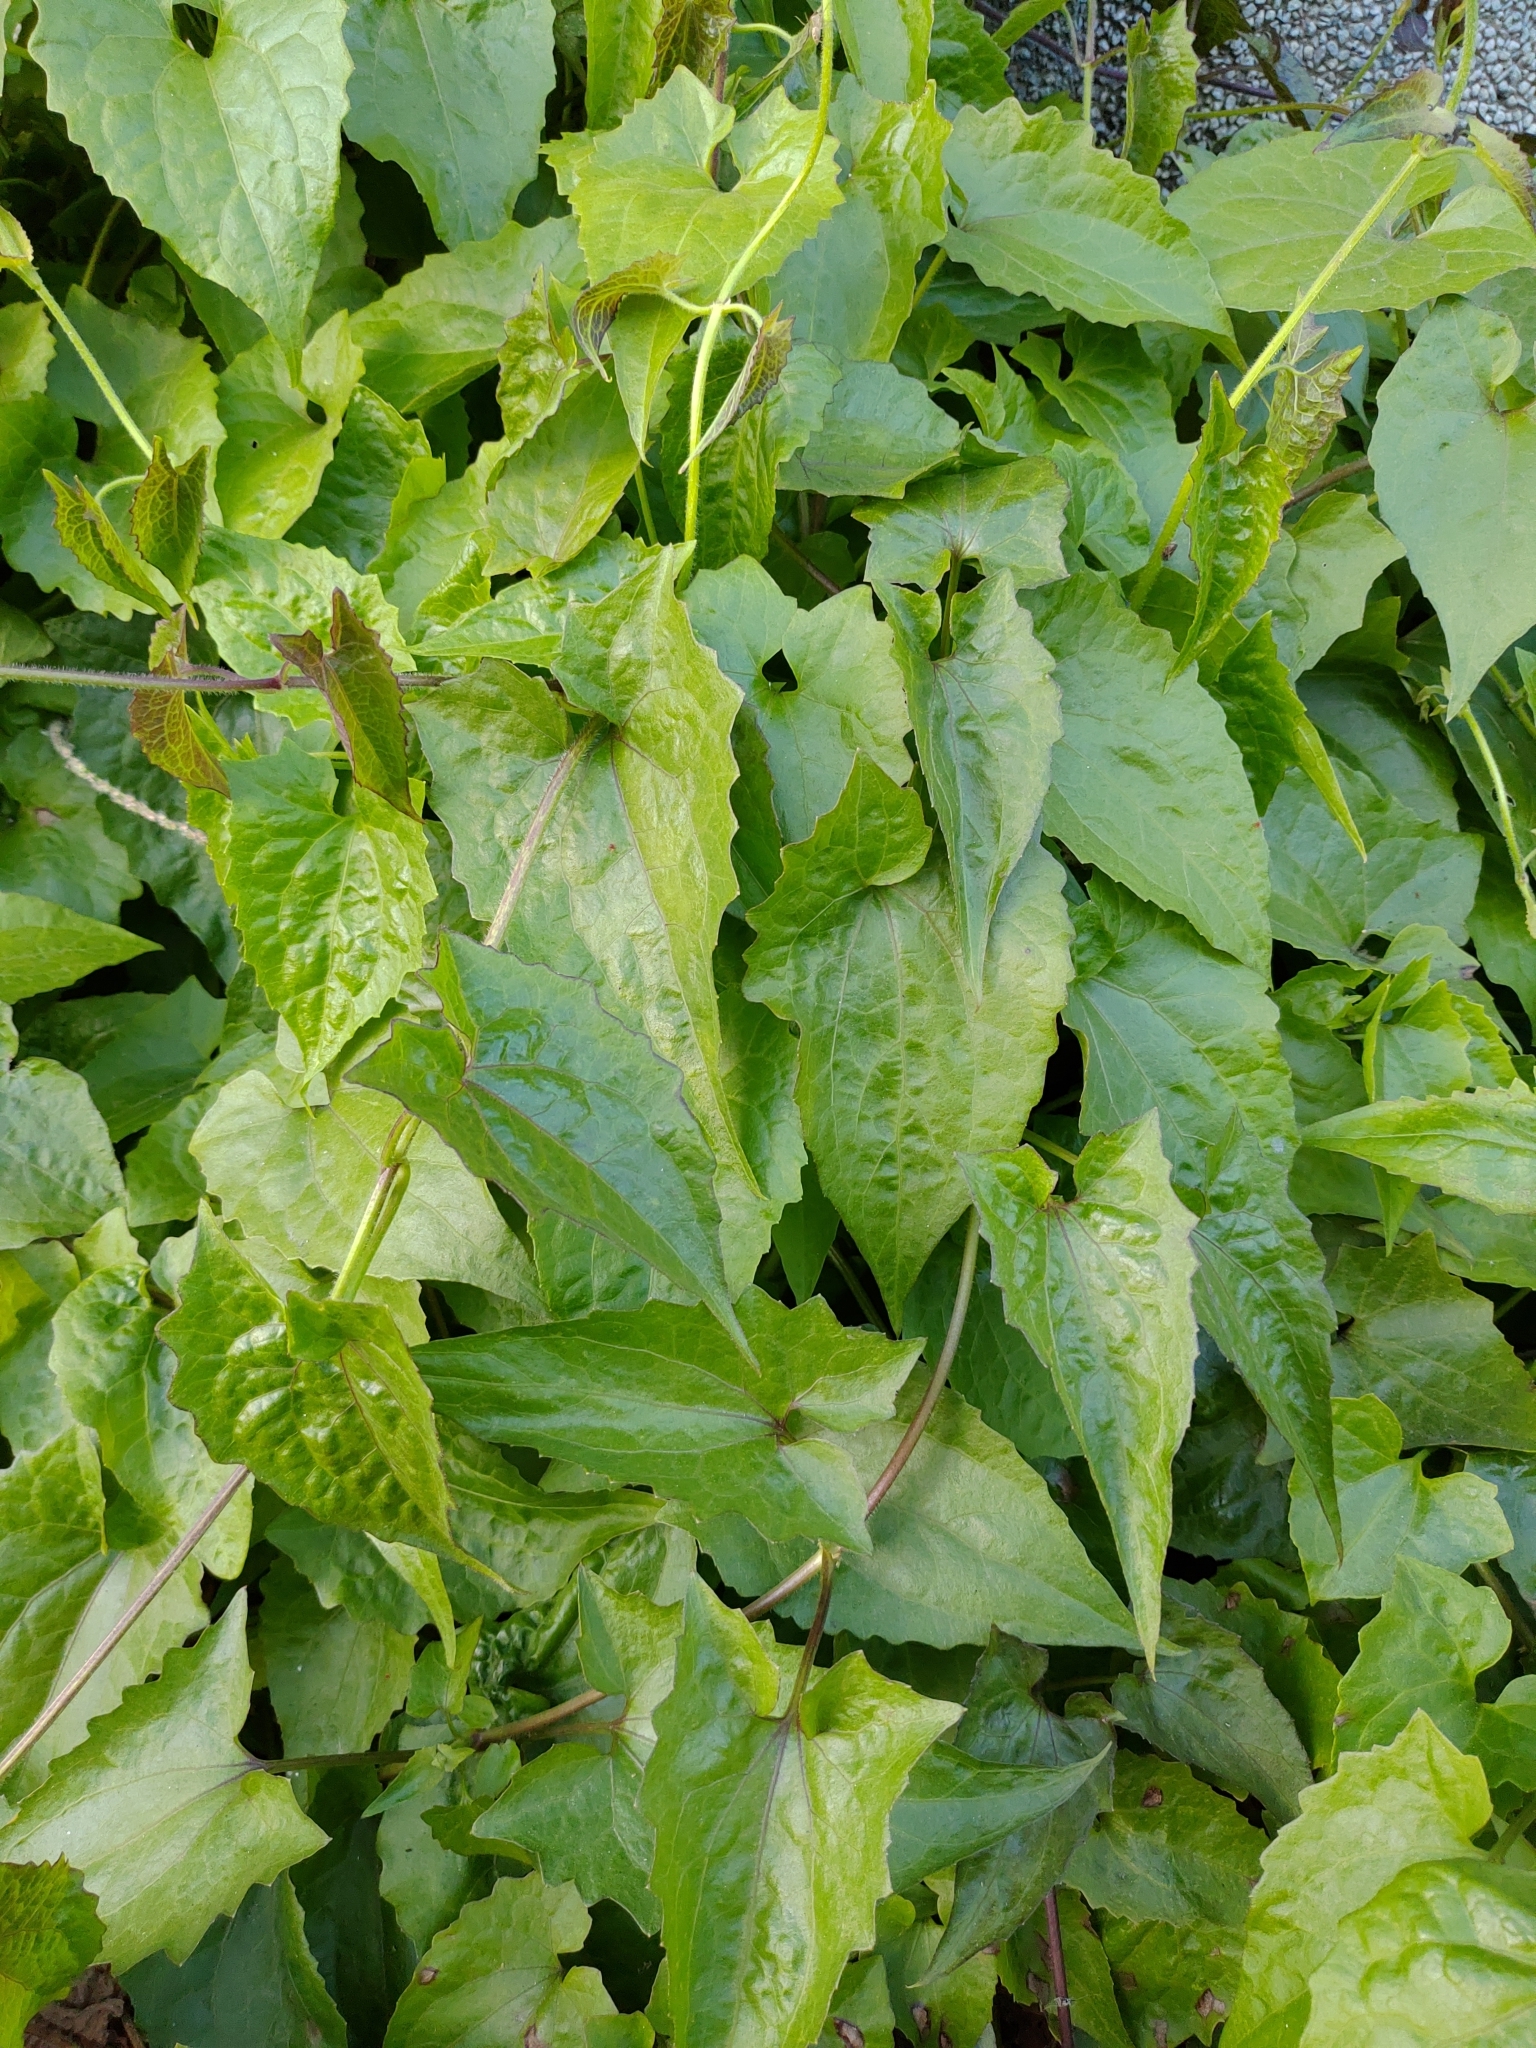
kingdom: Plantae
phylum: Tracheophyta
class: Magnoliopsida
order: Asterales
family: Asteraceae
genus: Mikania
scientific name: Mikania micrantha
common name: Mile-a-minute
